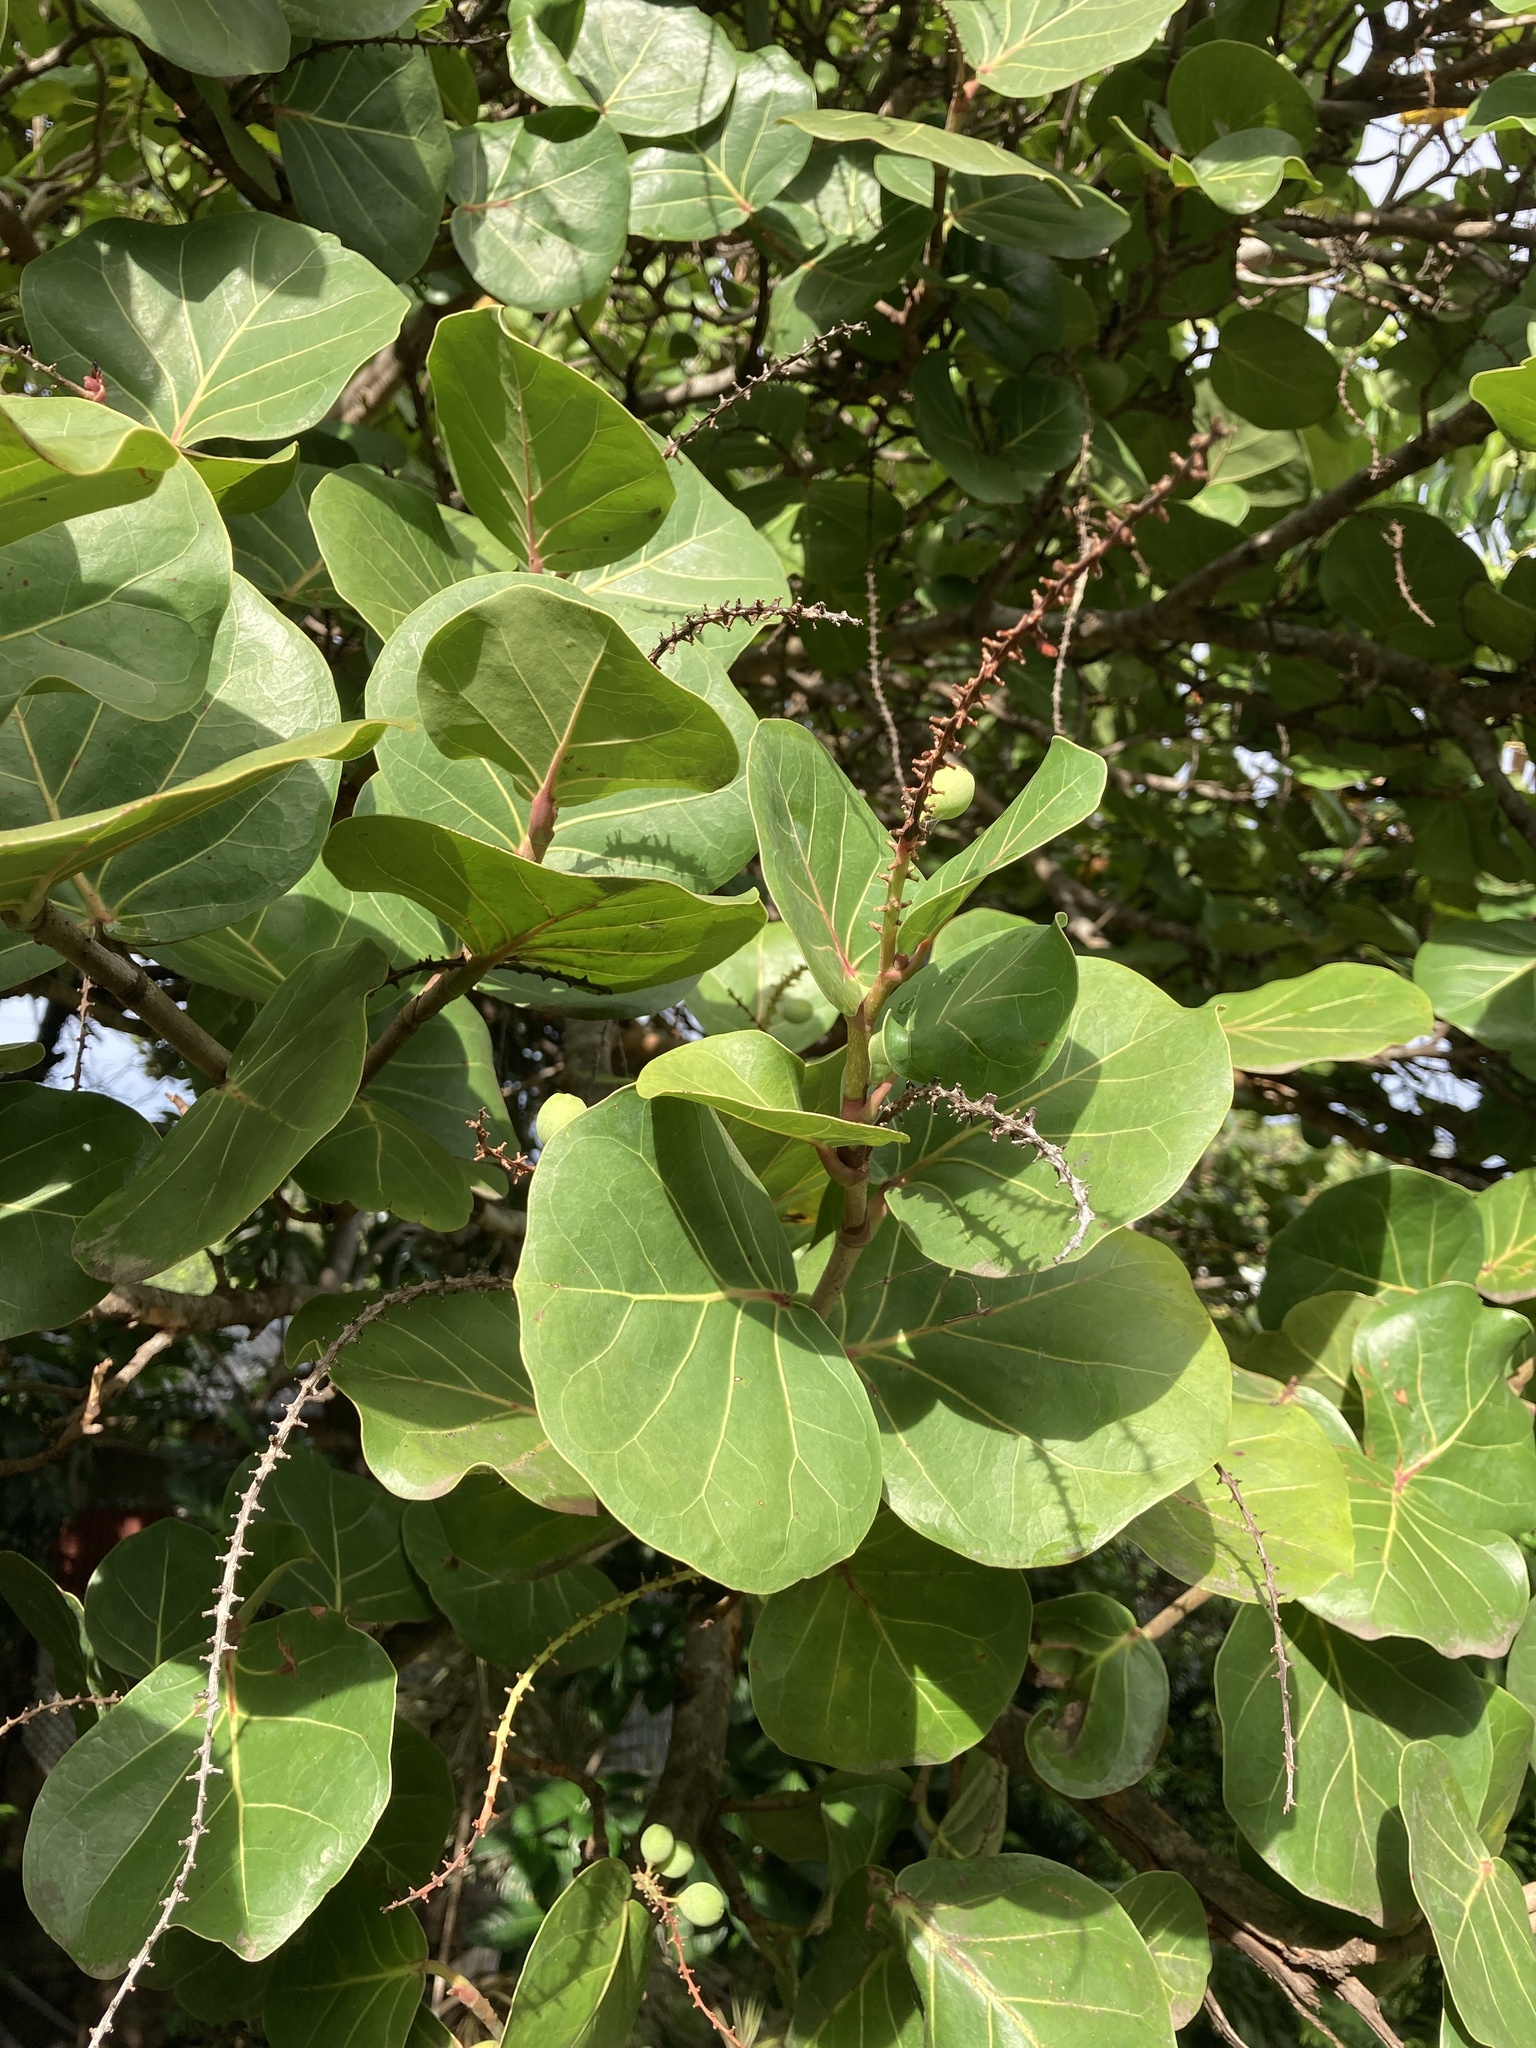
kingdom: Plantae
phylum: Tracheophyta
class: Magnoliopsida
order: Caryophyllales
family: Polygonaceae
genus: Coccoloba
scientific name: Coccoloba uvifera
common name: Seagrape
